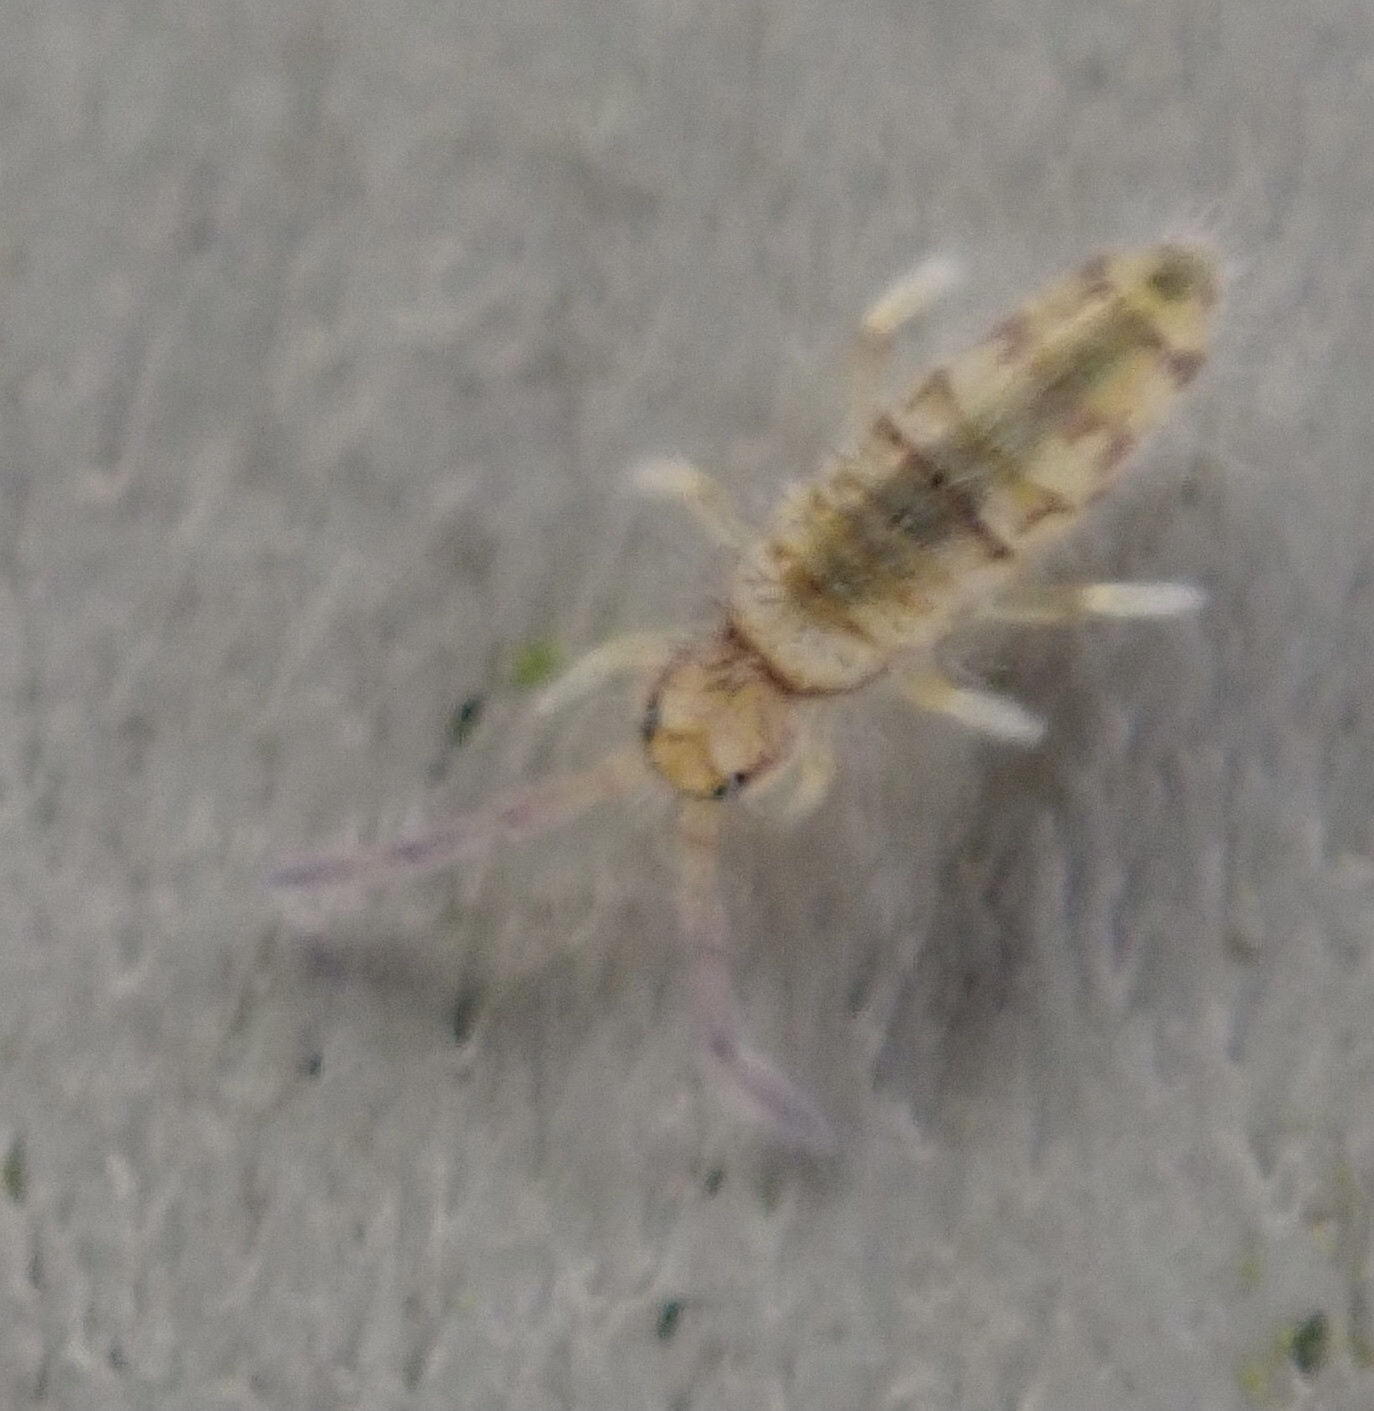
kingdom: Animalia
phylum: Arthropoda
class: Collembola
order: Entomobryomorpha
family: Entomobryidae
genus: Entomobrya
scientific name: Entomobrya atrocincta
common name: Springtail
